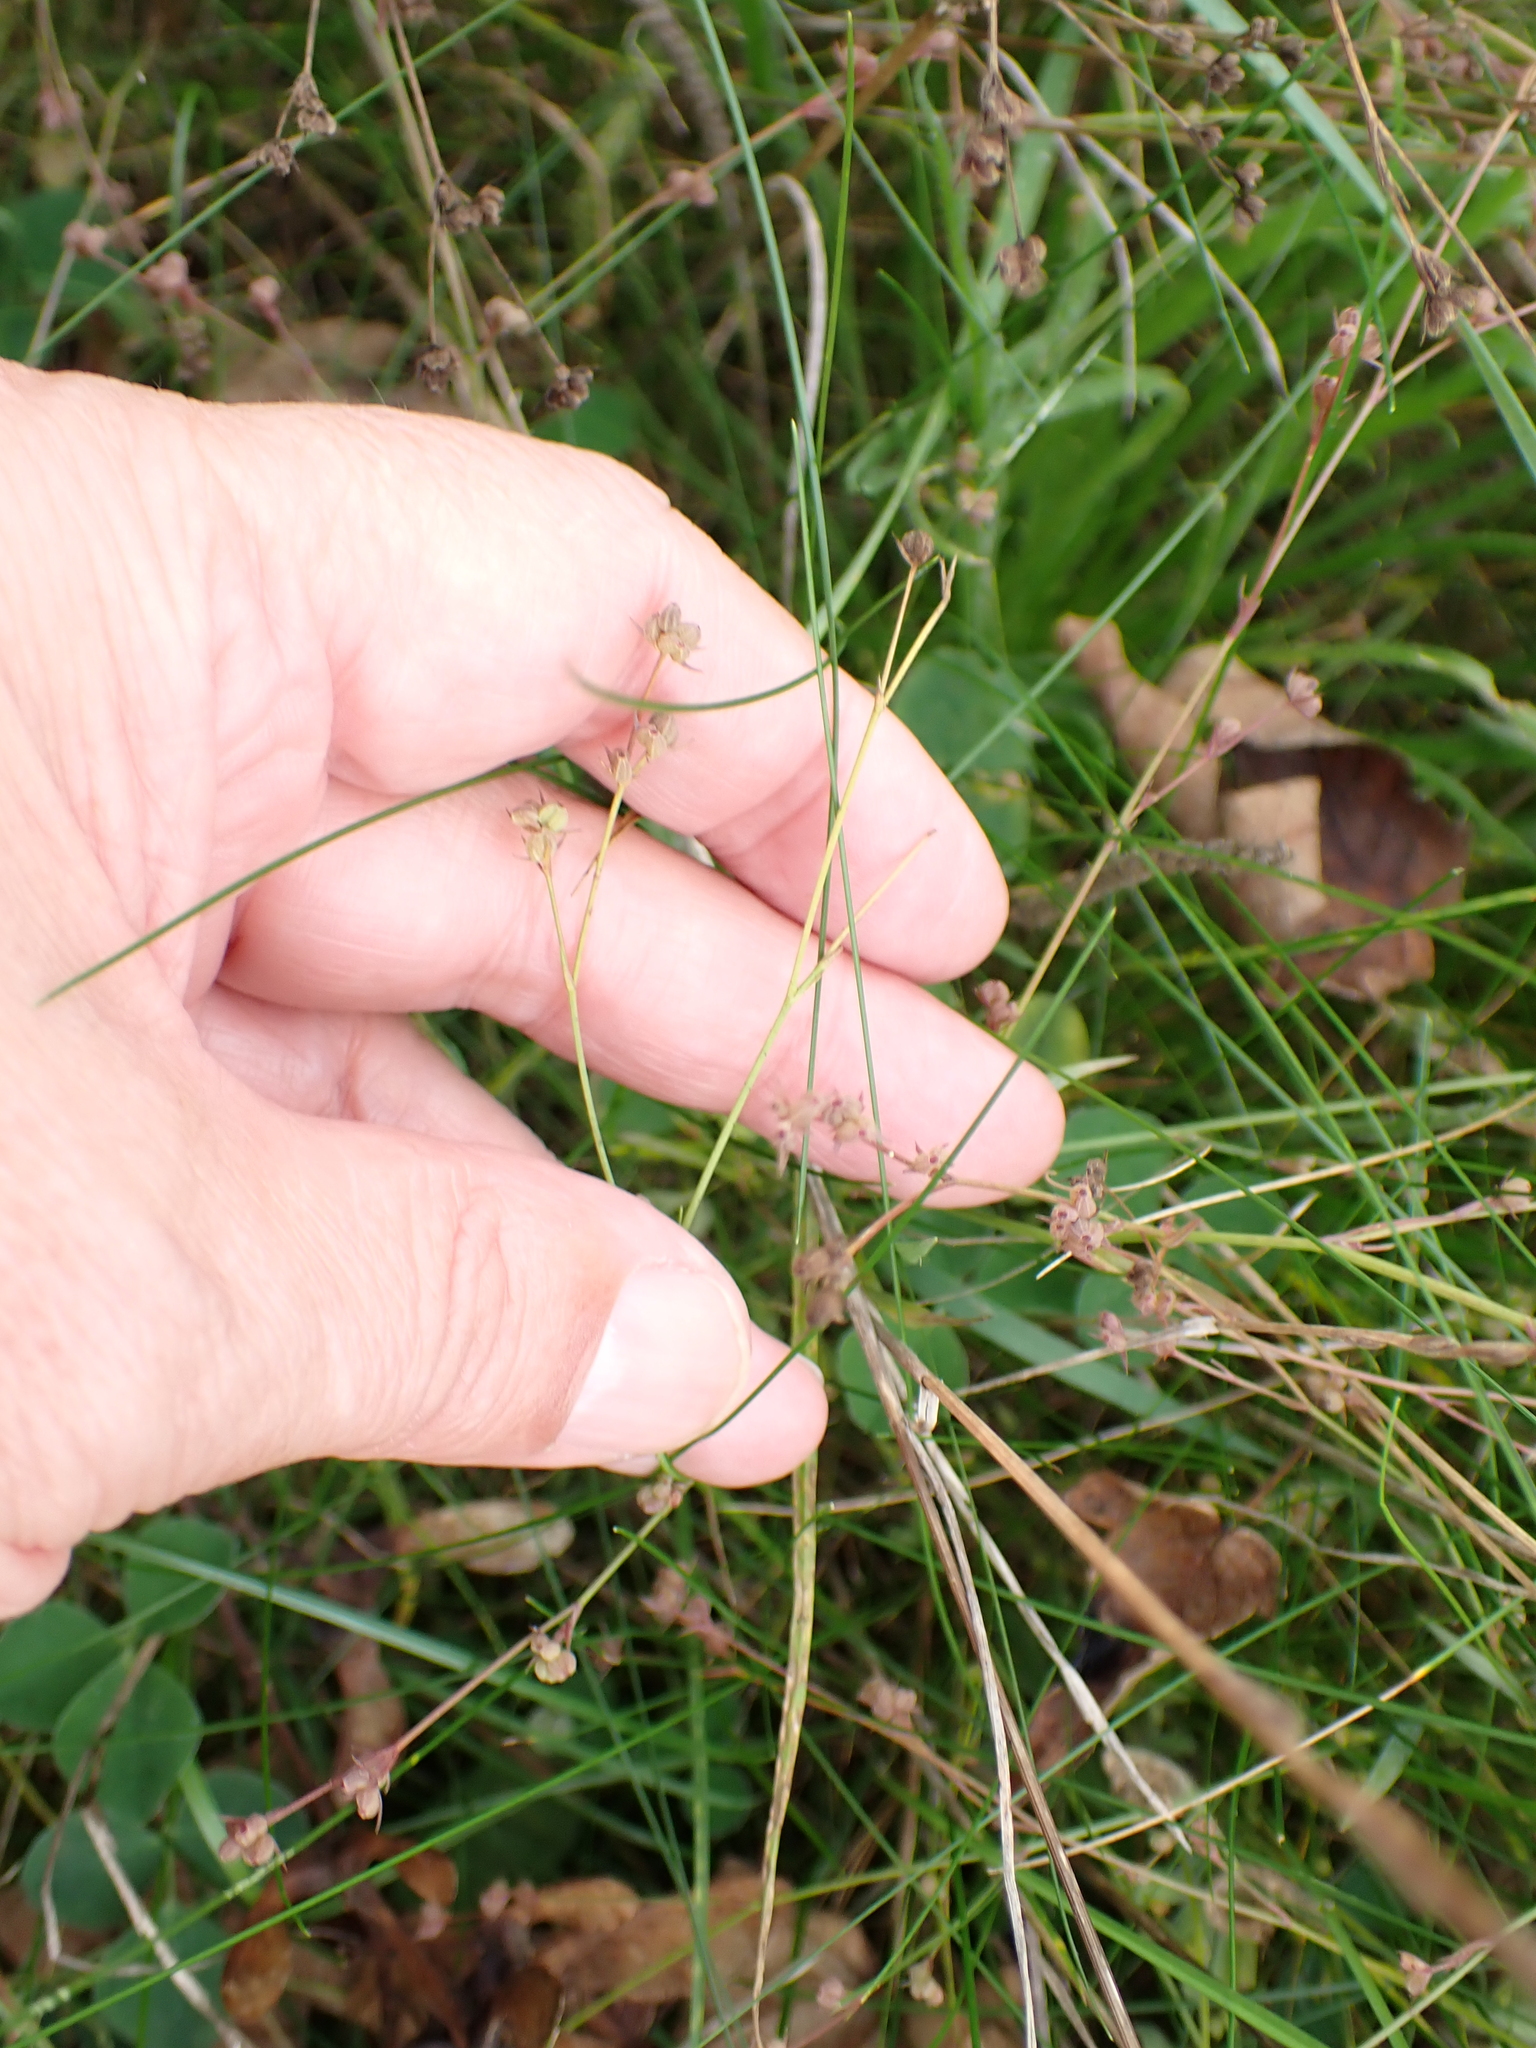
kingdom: Plantae
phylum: Tracheophyta
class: Magnoliopsida
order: Apiales
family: Apiaceae
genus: Bupleurum
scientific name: Bupleurum tenuissimum
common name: Slender hare's-ear
